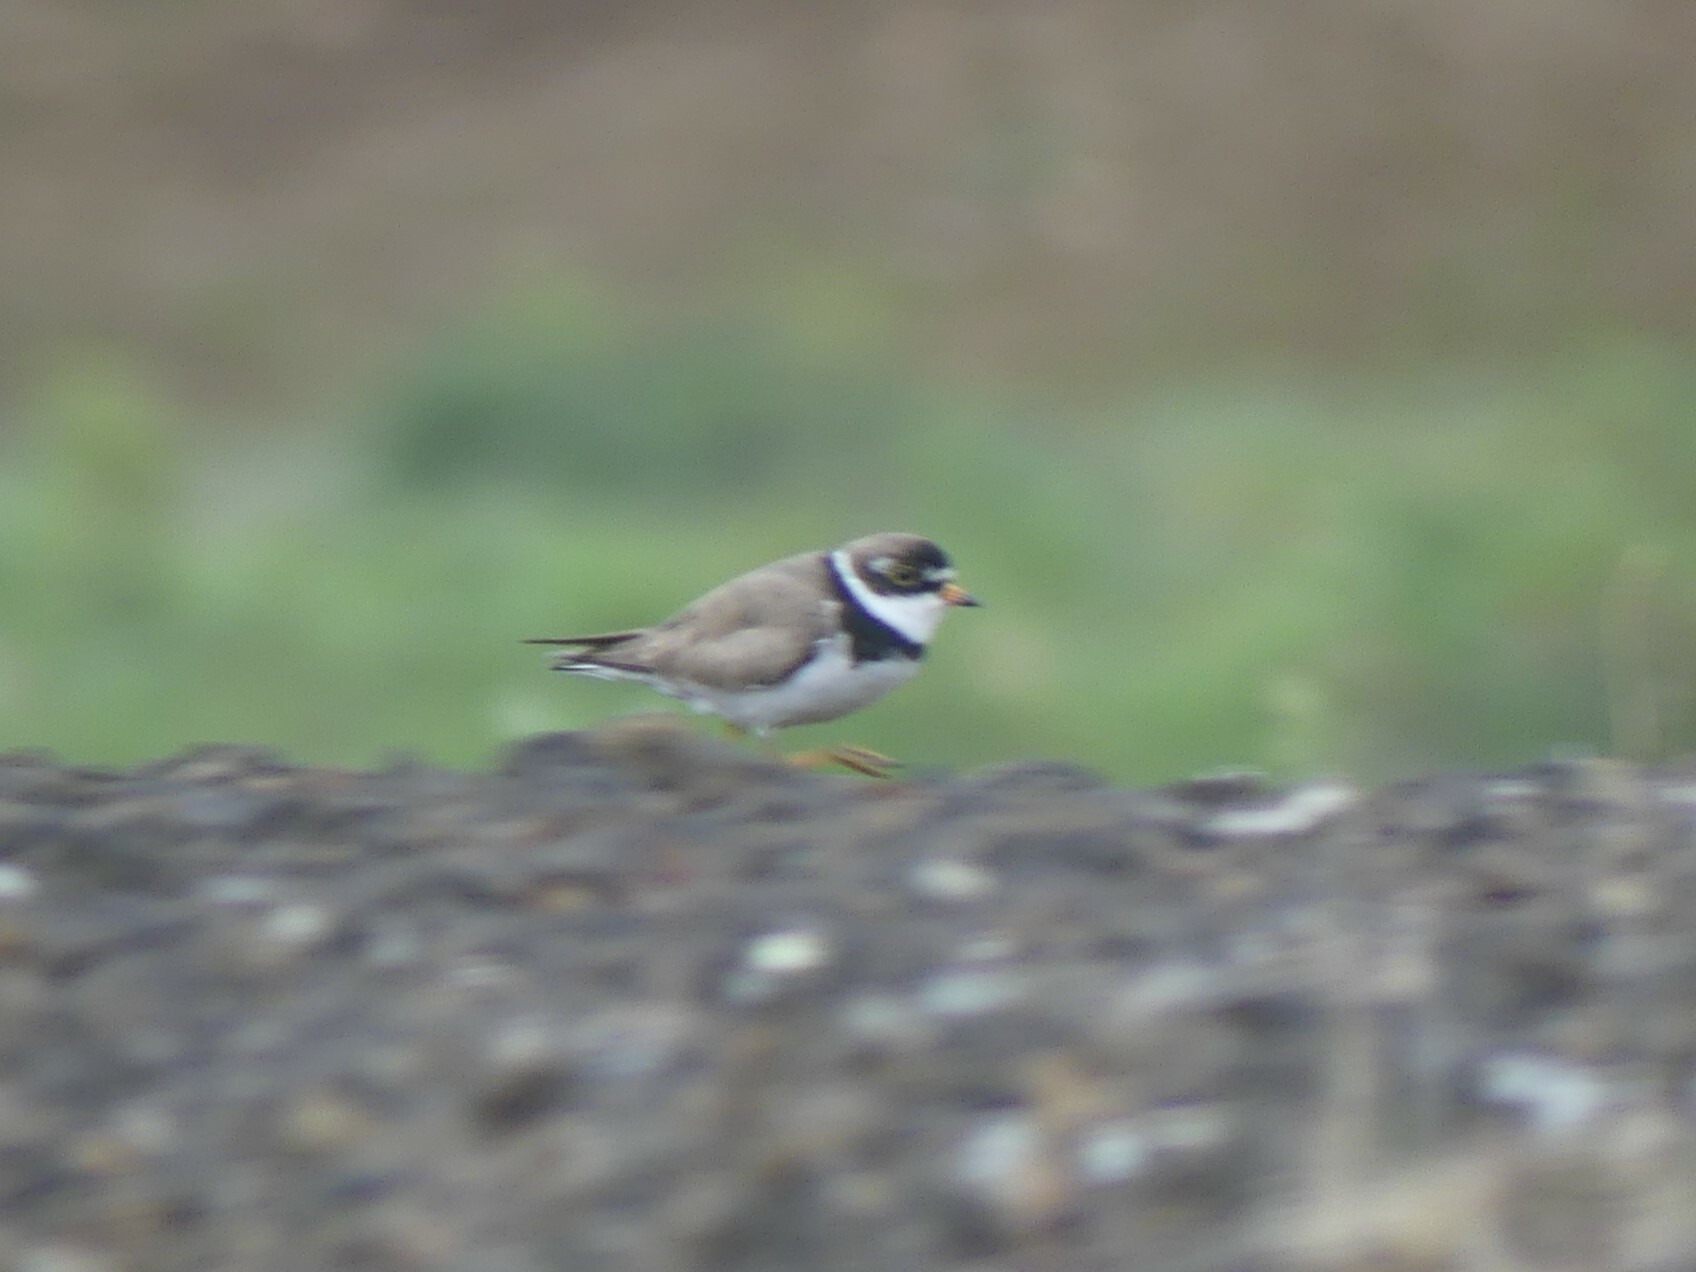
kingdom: Animalia
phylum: Chordata
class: Aves
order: Charadriiformes
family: Charadriidae
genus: Charadrius
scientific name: Charadrius semipalmatus
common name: Semipalmated plover
